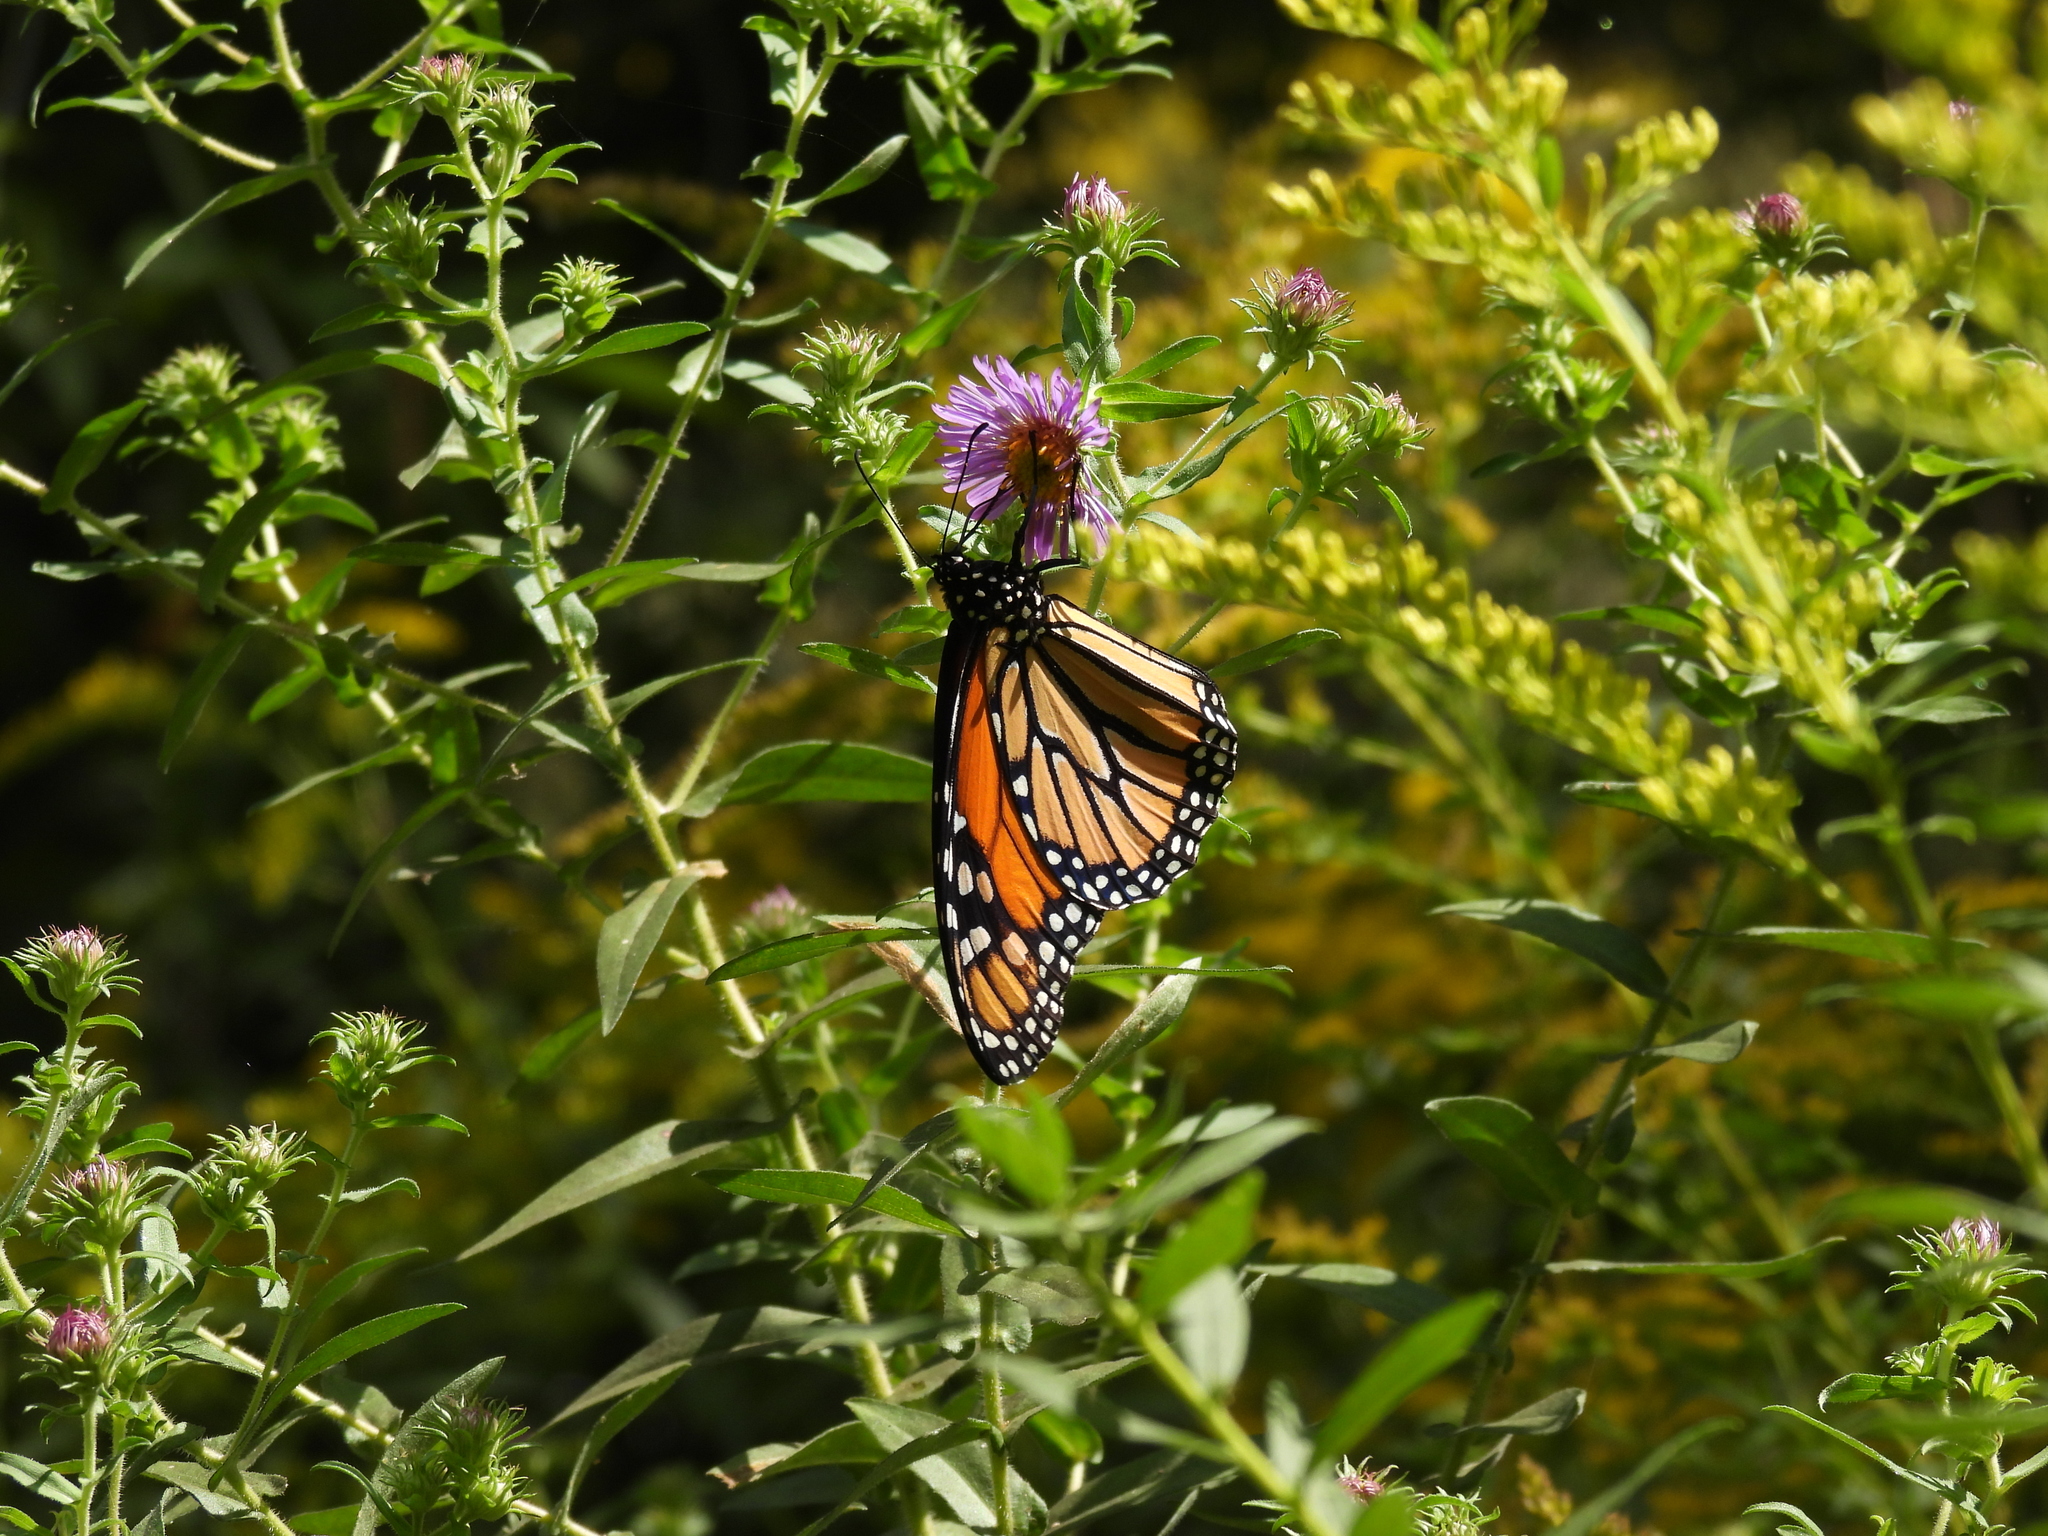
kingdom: Animalia
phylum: Arthropoda
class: Insecta
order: Lepidoptera
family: Nymphalidae
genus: Danaus
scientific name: Danaus plexippus
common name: Monarch
